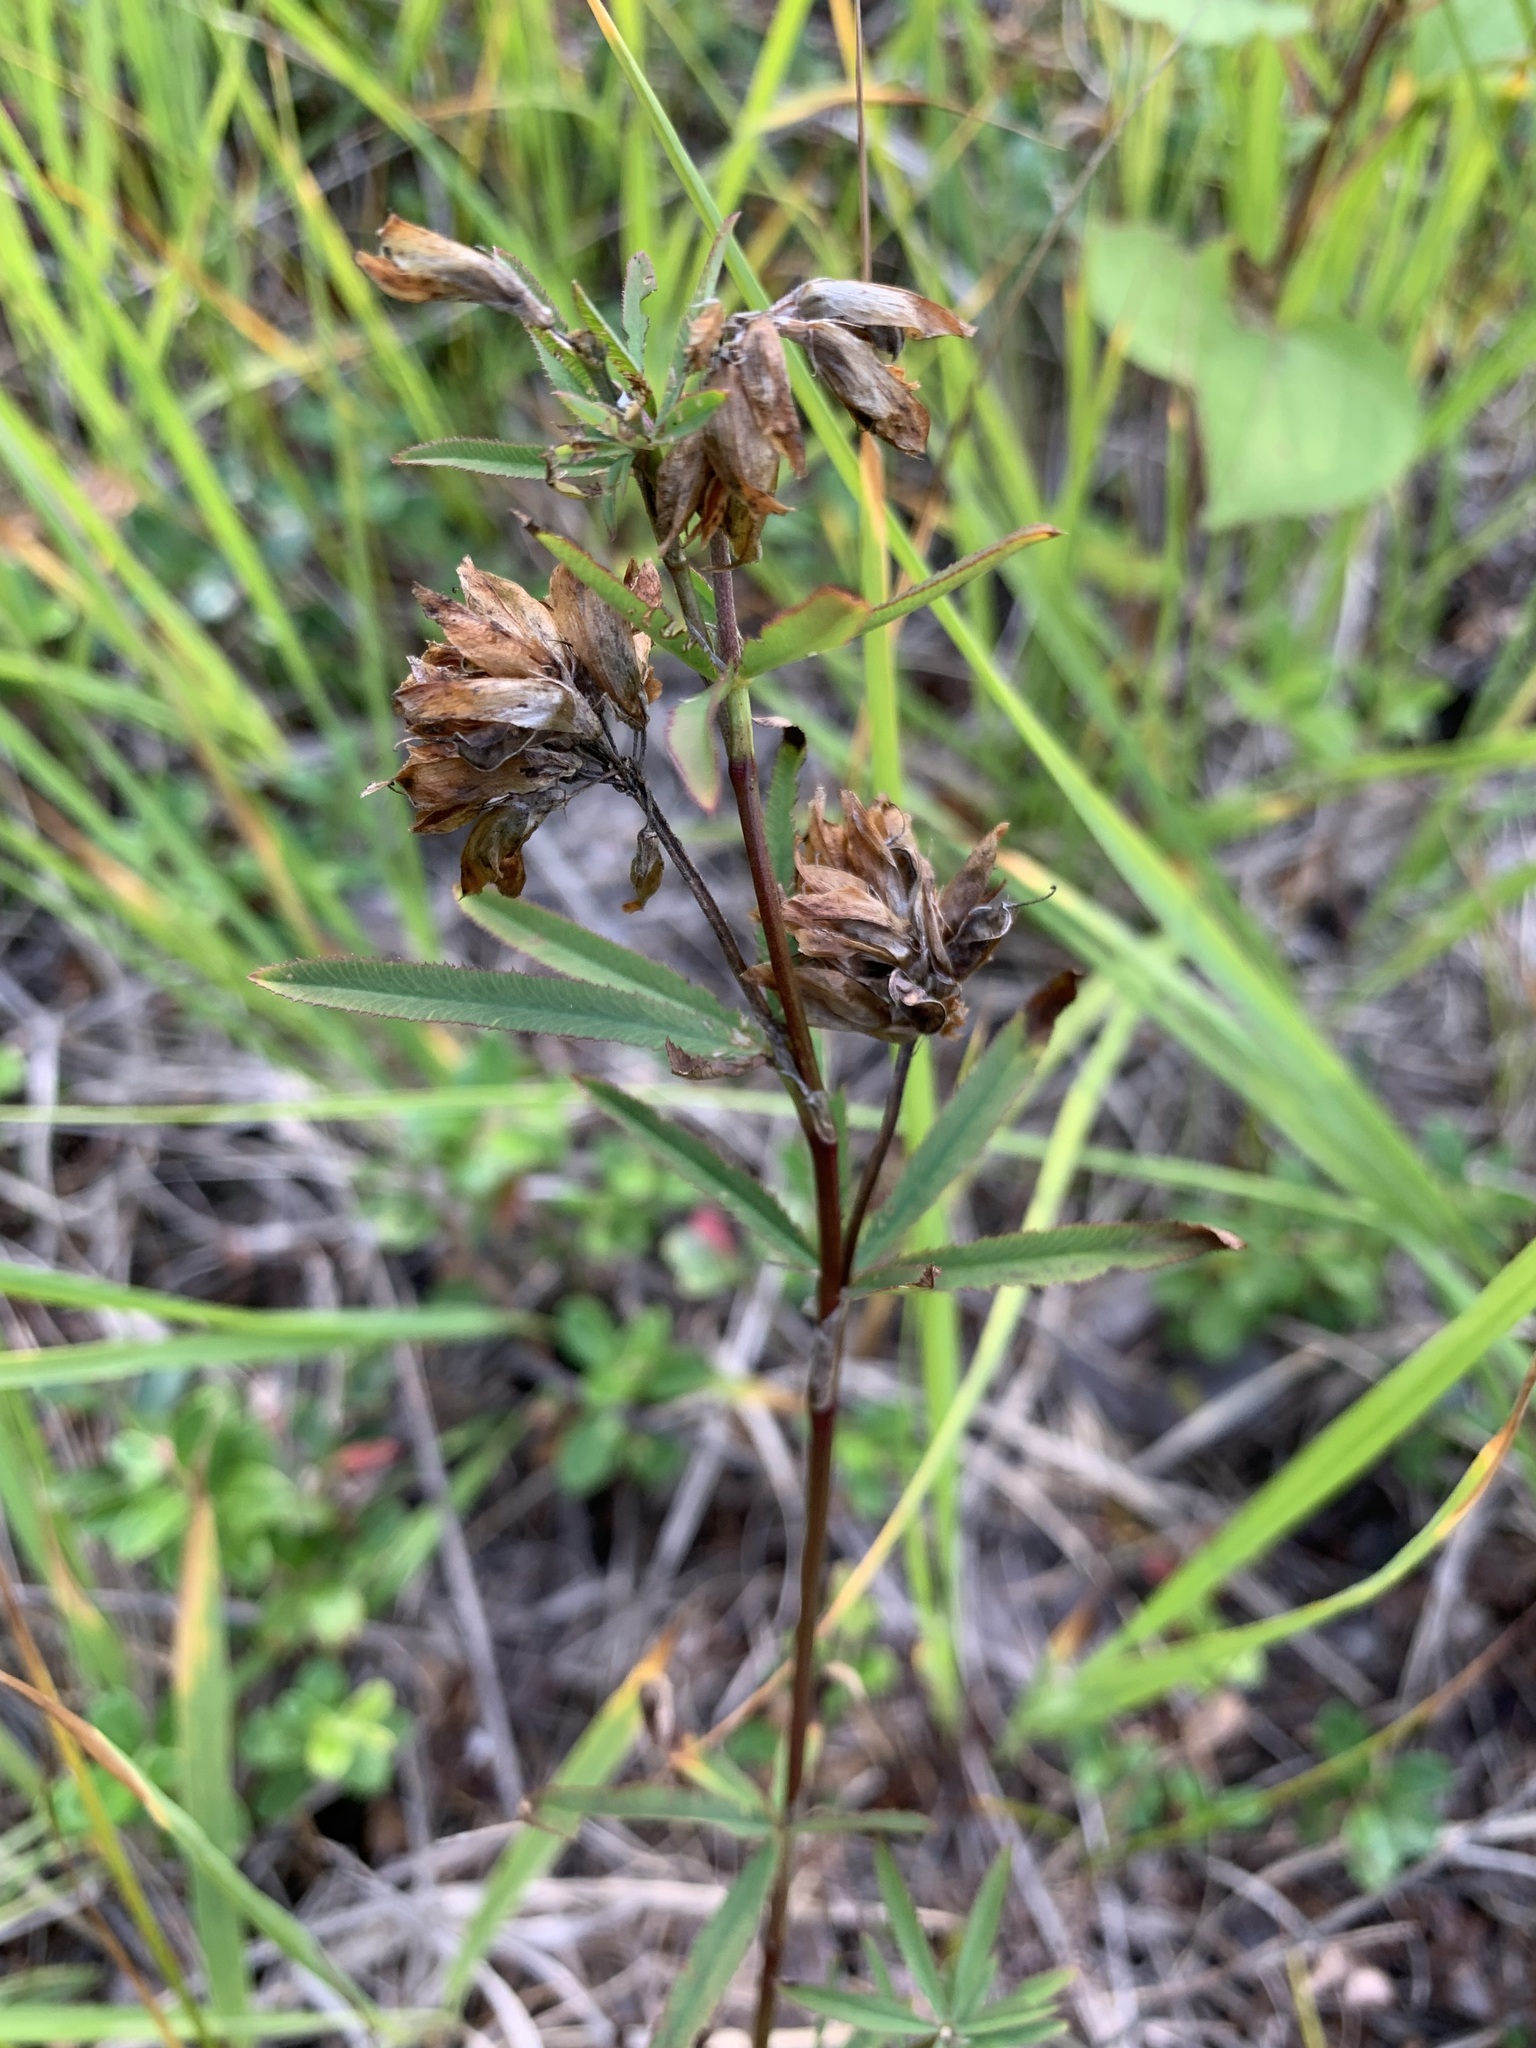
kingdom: Plantae
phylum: Tracheophyta
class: Magnoliopsida
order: Fabales
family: Fabaceae
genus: Trifolium
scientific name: Trifolium lupinaster
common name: Lupine clover
